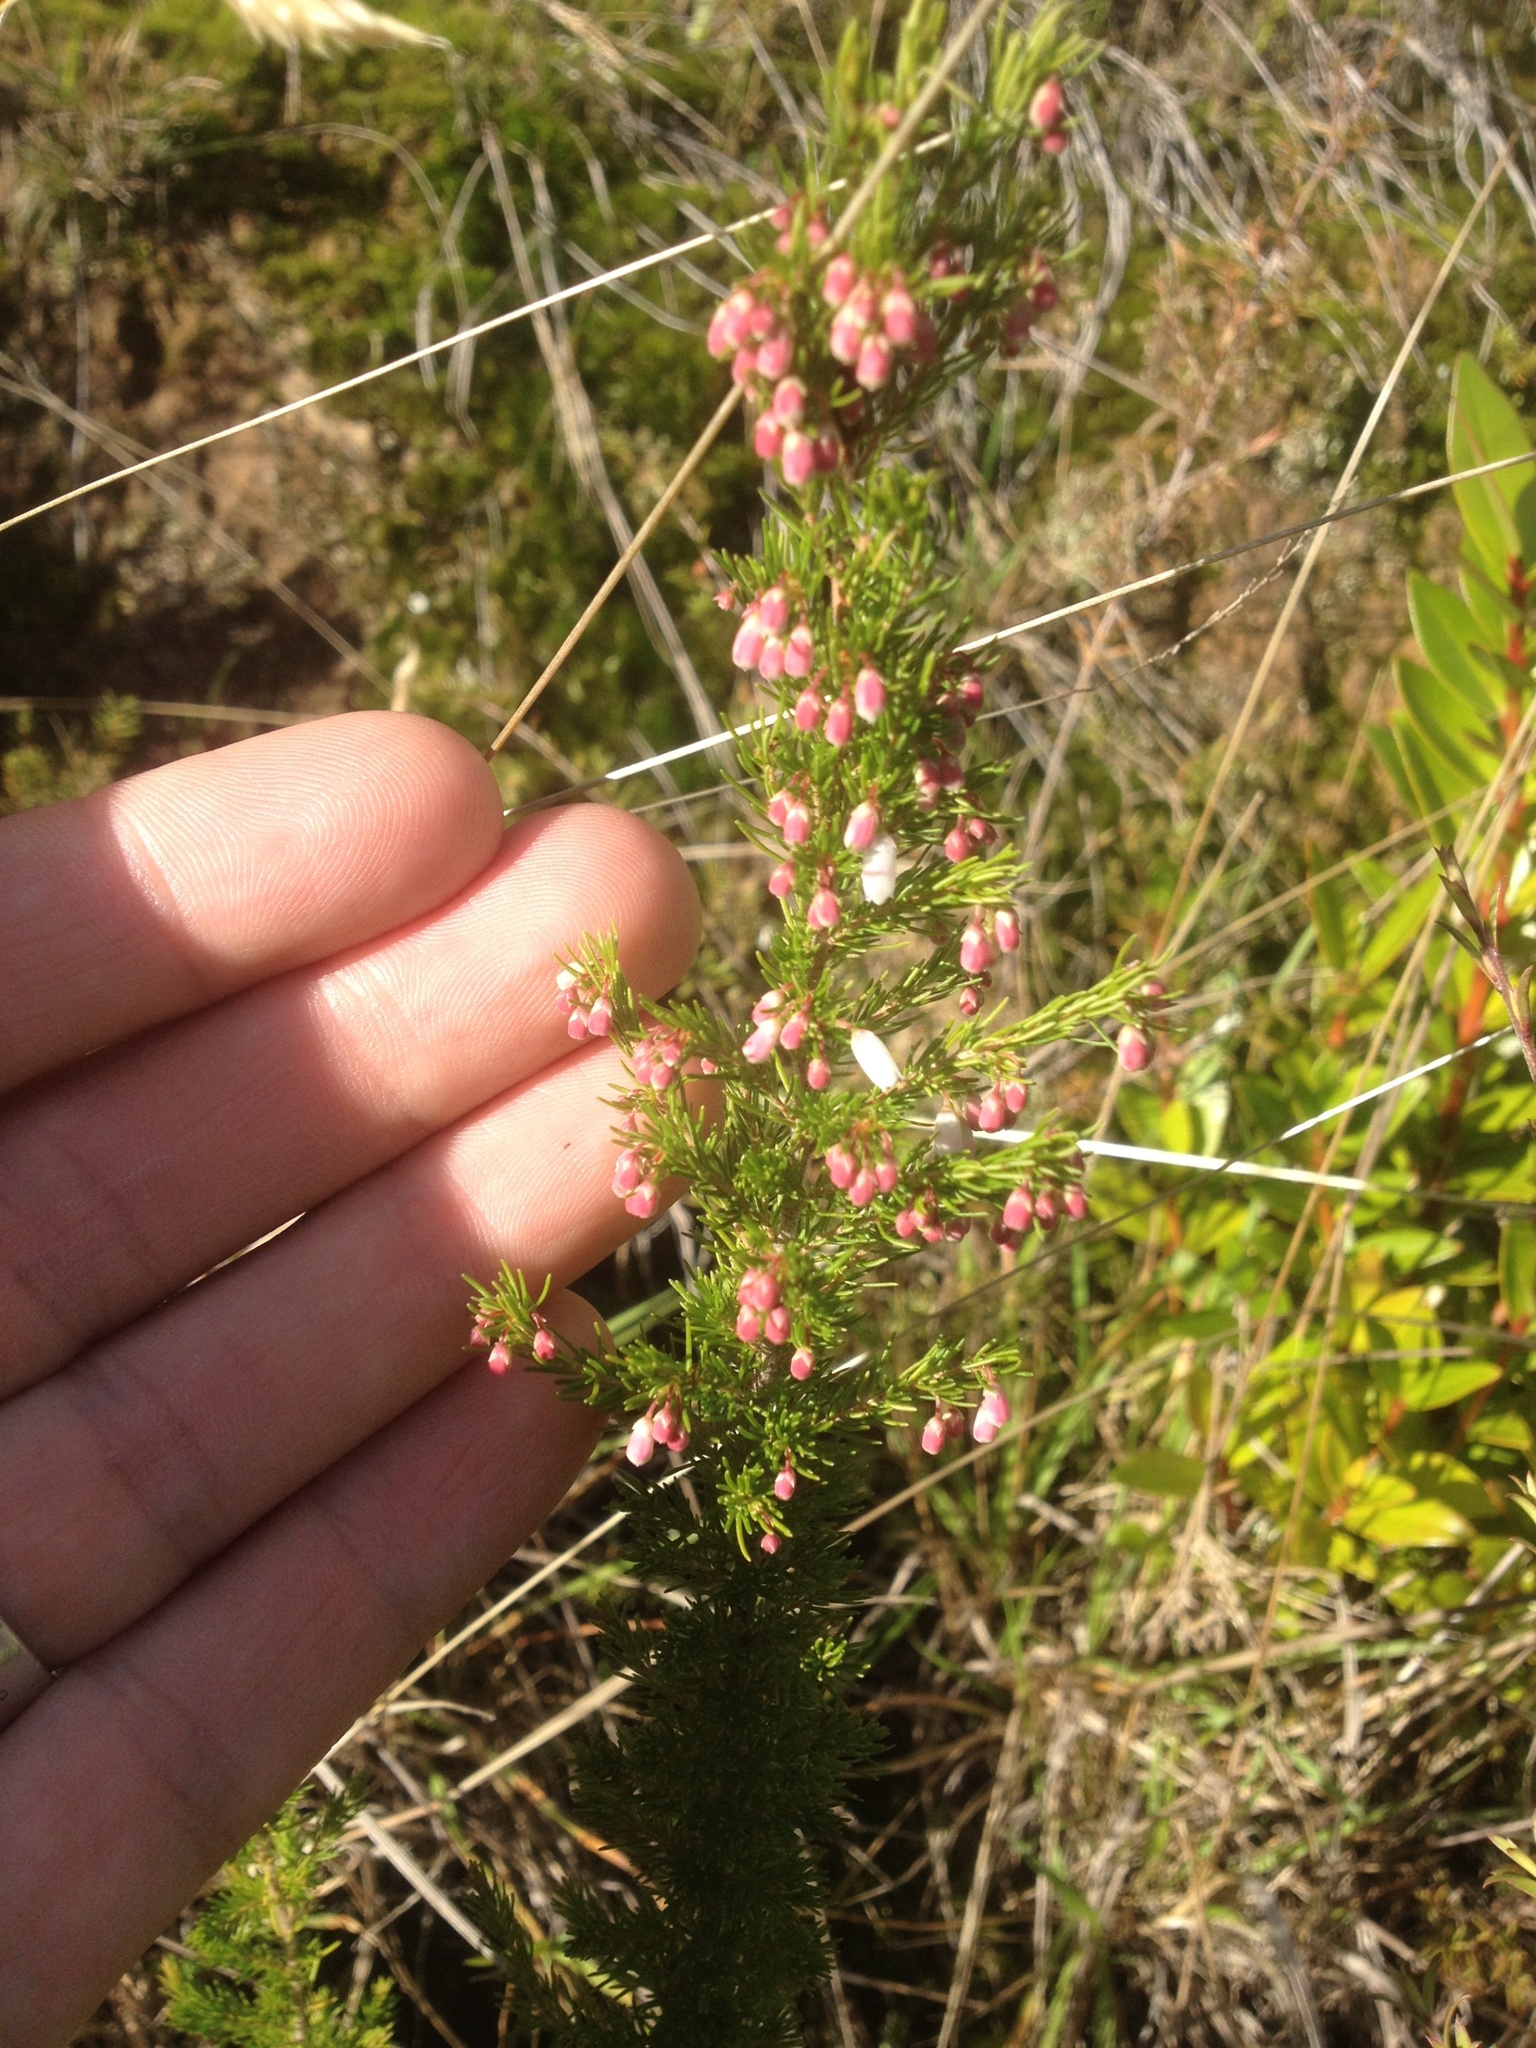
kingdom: Plantae
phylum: Tracheophyta
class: Magnoliopsida
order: Ericales
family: Ericaceae
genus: Erica
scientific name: Erica lusitanica
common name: Spanish heath
